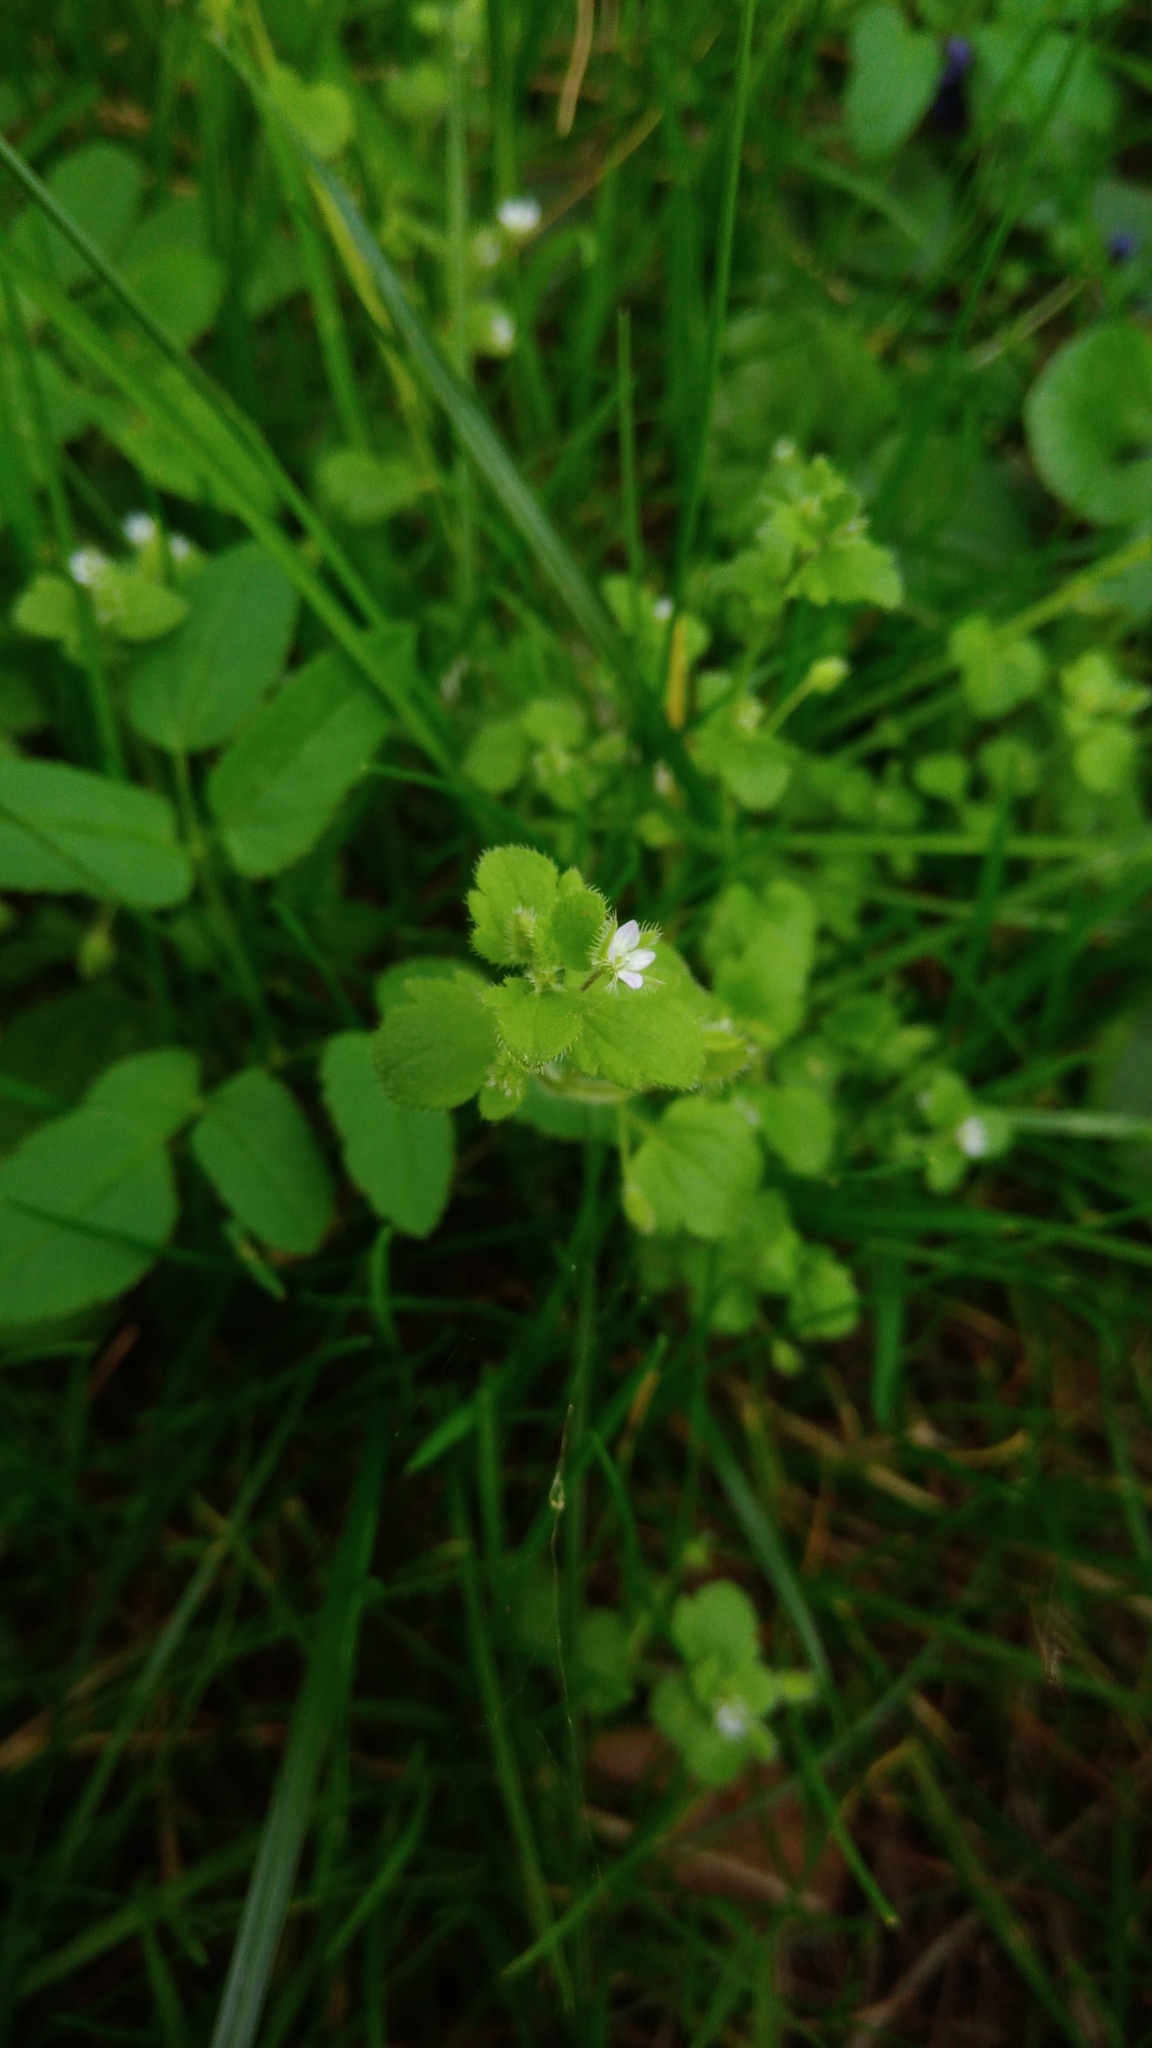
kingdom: Plantae
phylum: Tracheophyta
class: Magnoliopsida
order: Lamiales
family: Plantaginaceae
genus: Veronica
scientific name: Veronica sublobata
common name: False ivy-leaved speedwell
